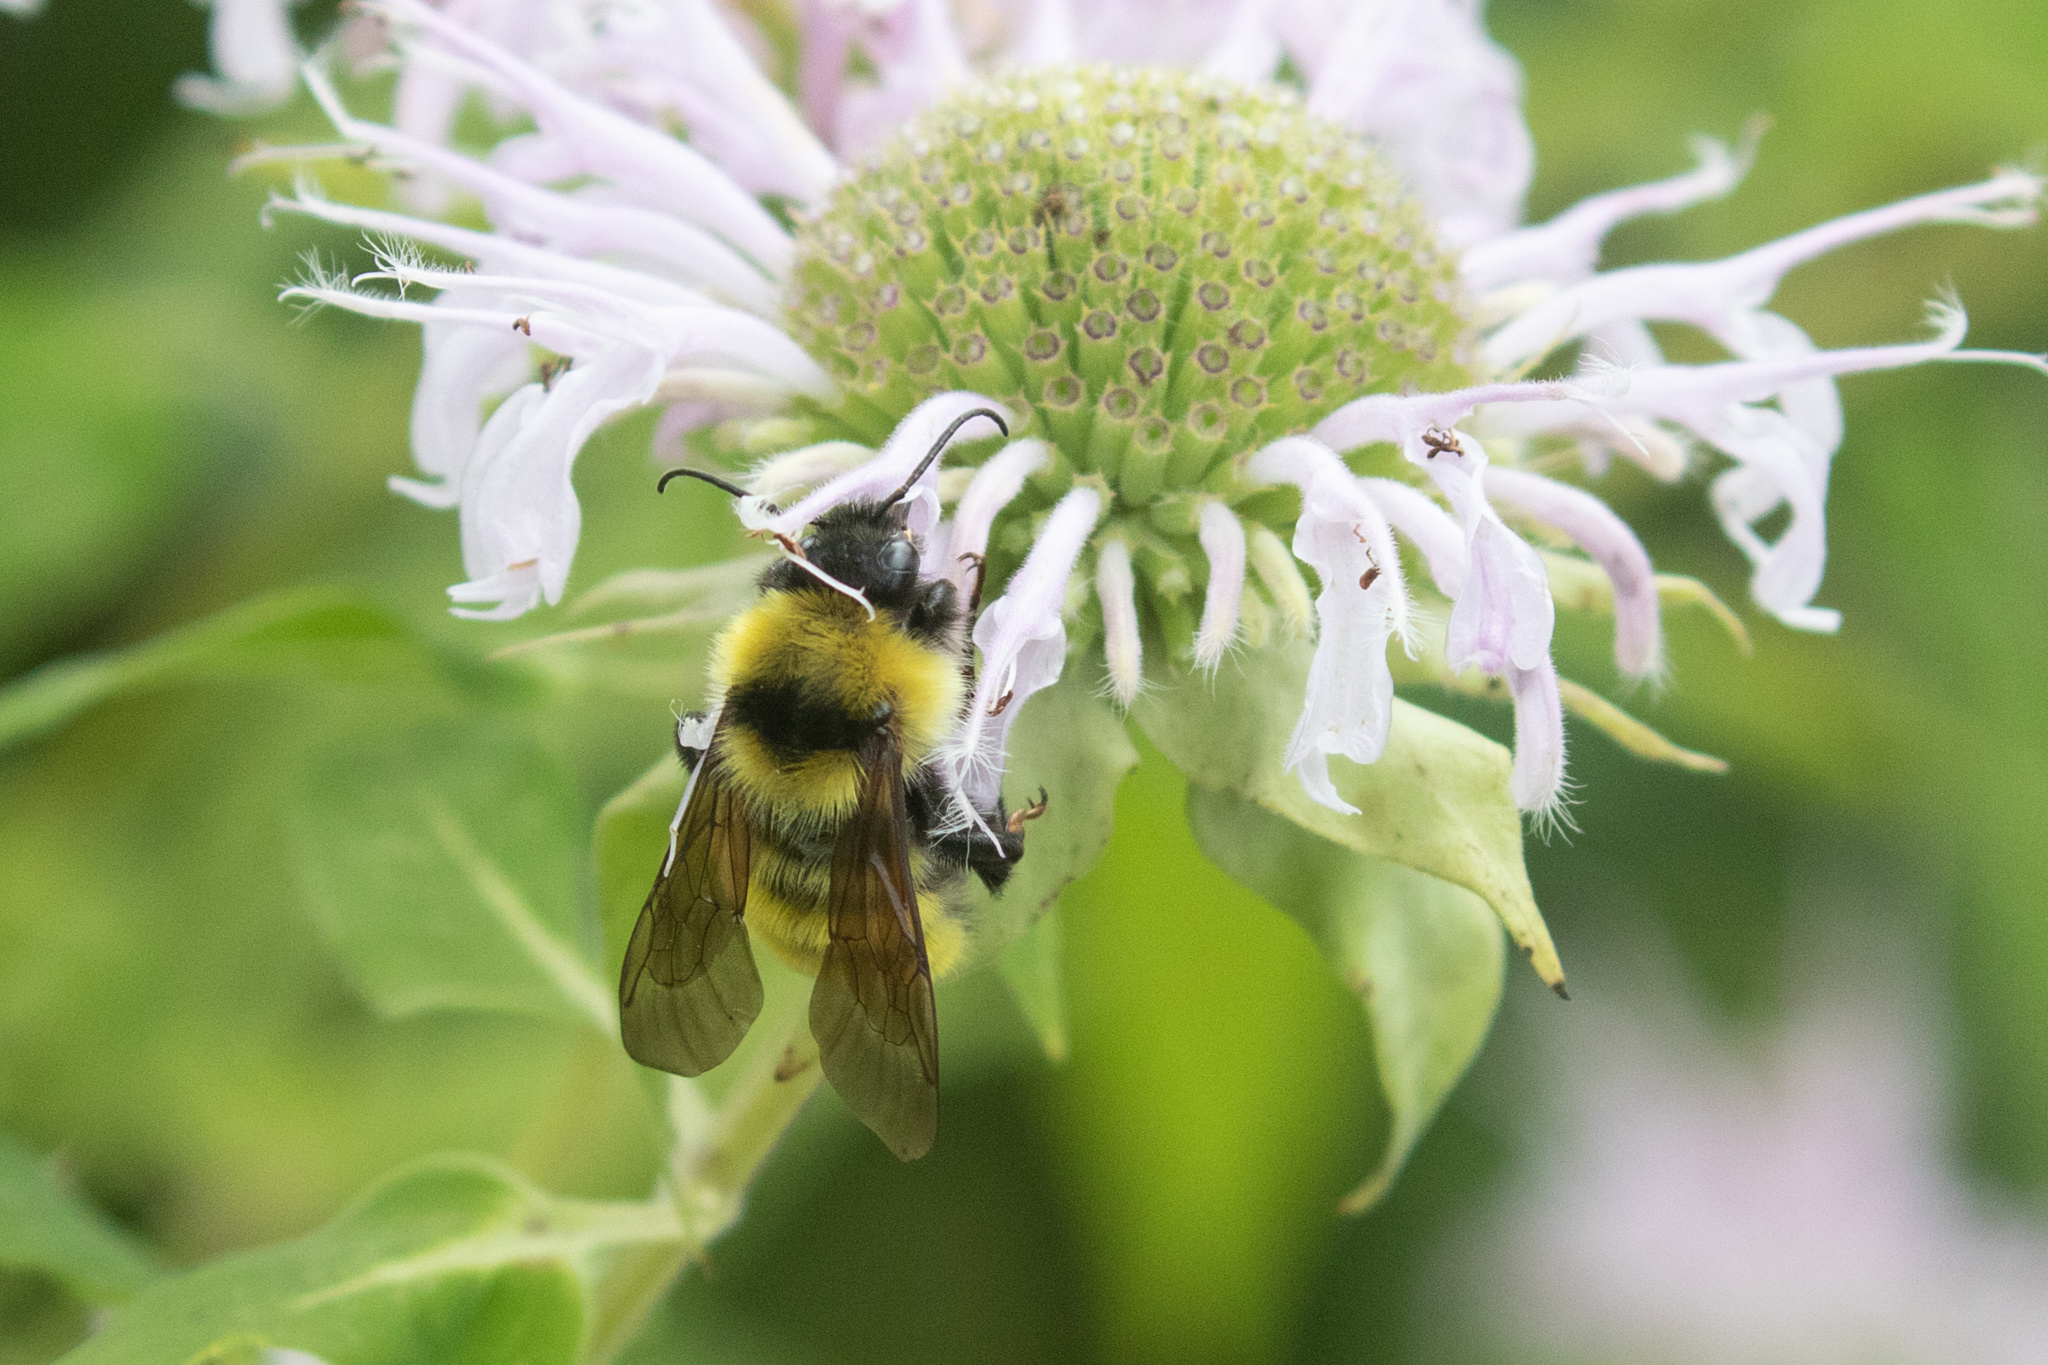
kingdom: Animalia
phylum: Arthropoda
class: Insecta
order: Hymenoptera
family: Apidae
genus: Bombus
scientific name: Bombus fervidus
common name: Yellow bumble bee
